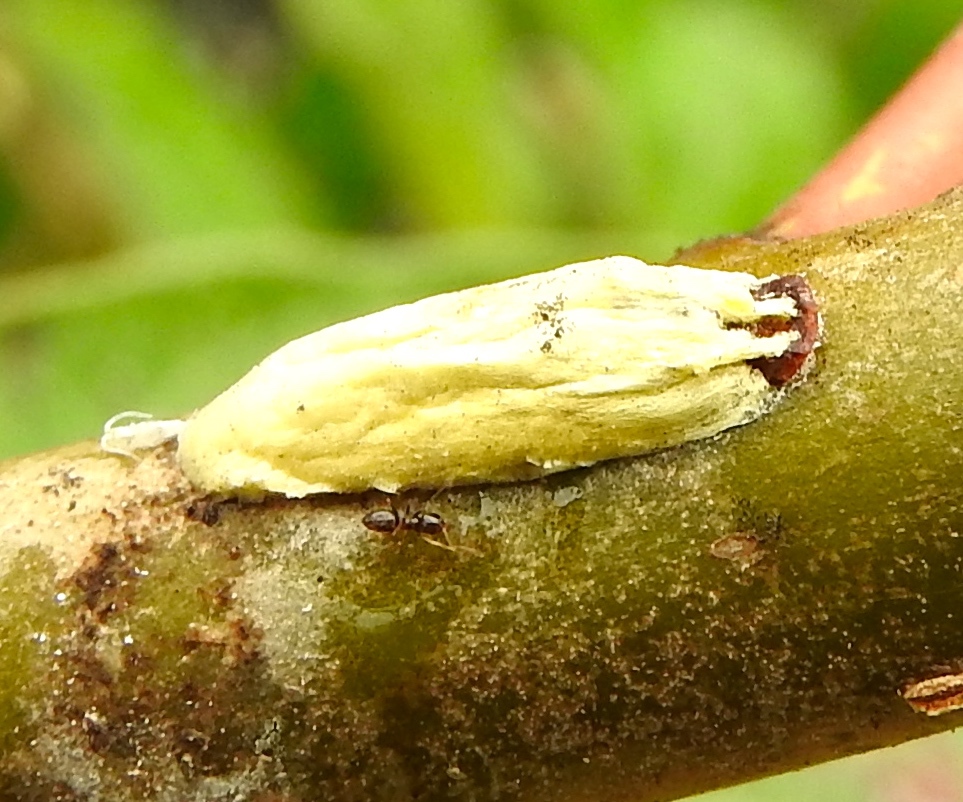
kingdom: Animalia
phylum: Arthropoda
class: Insecta
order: Hymenoptera
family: Formicidae
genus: Brachymyrmex
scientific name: Brachymyrmex
